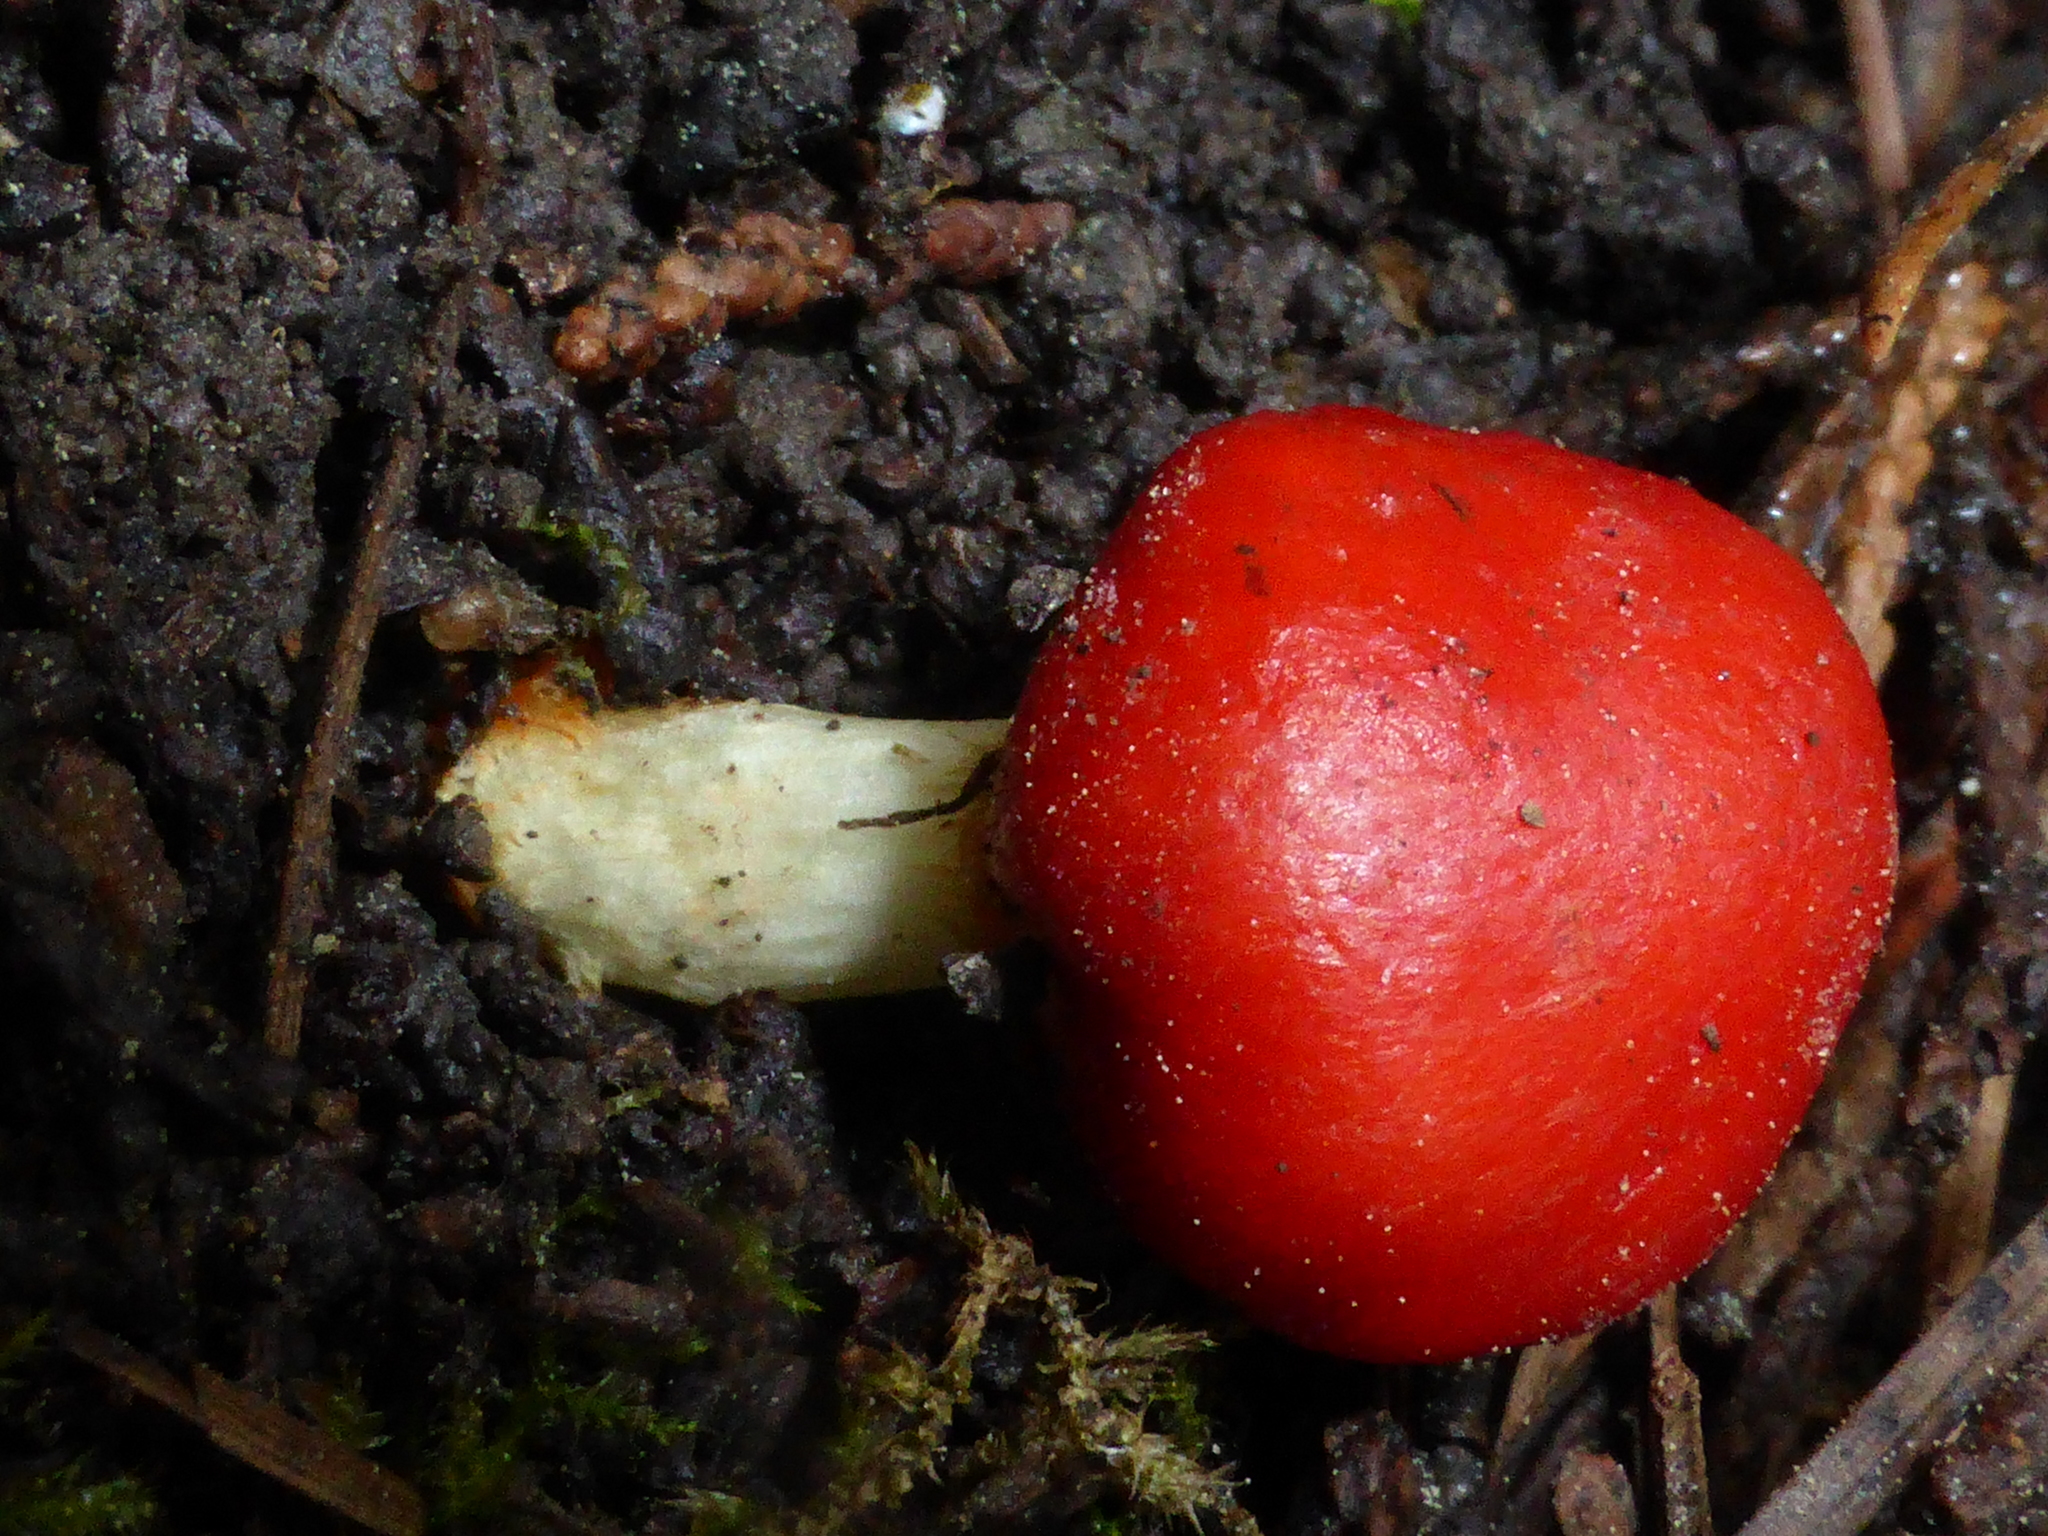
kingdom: Fungi
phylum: Basidiomycota
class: Agaricomycetes
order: Agaricales
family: Strophariaceae
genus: Leratiomyces
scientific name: Leratiomyces erythrocephalus
